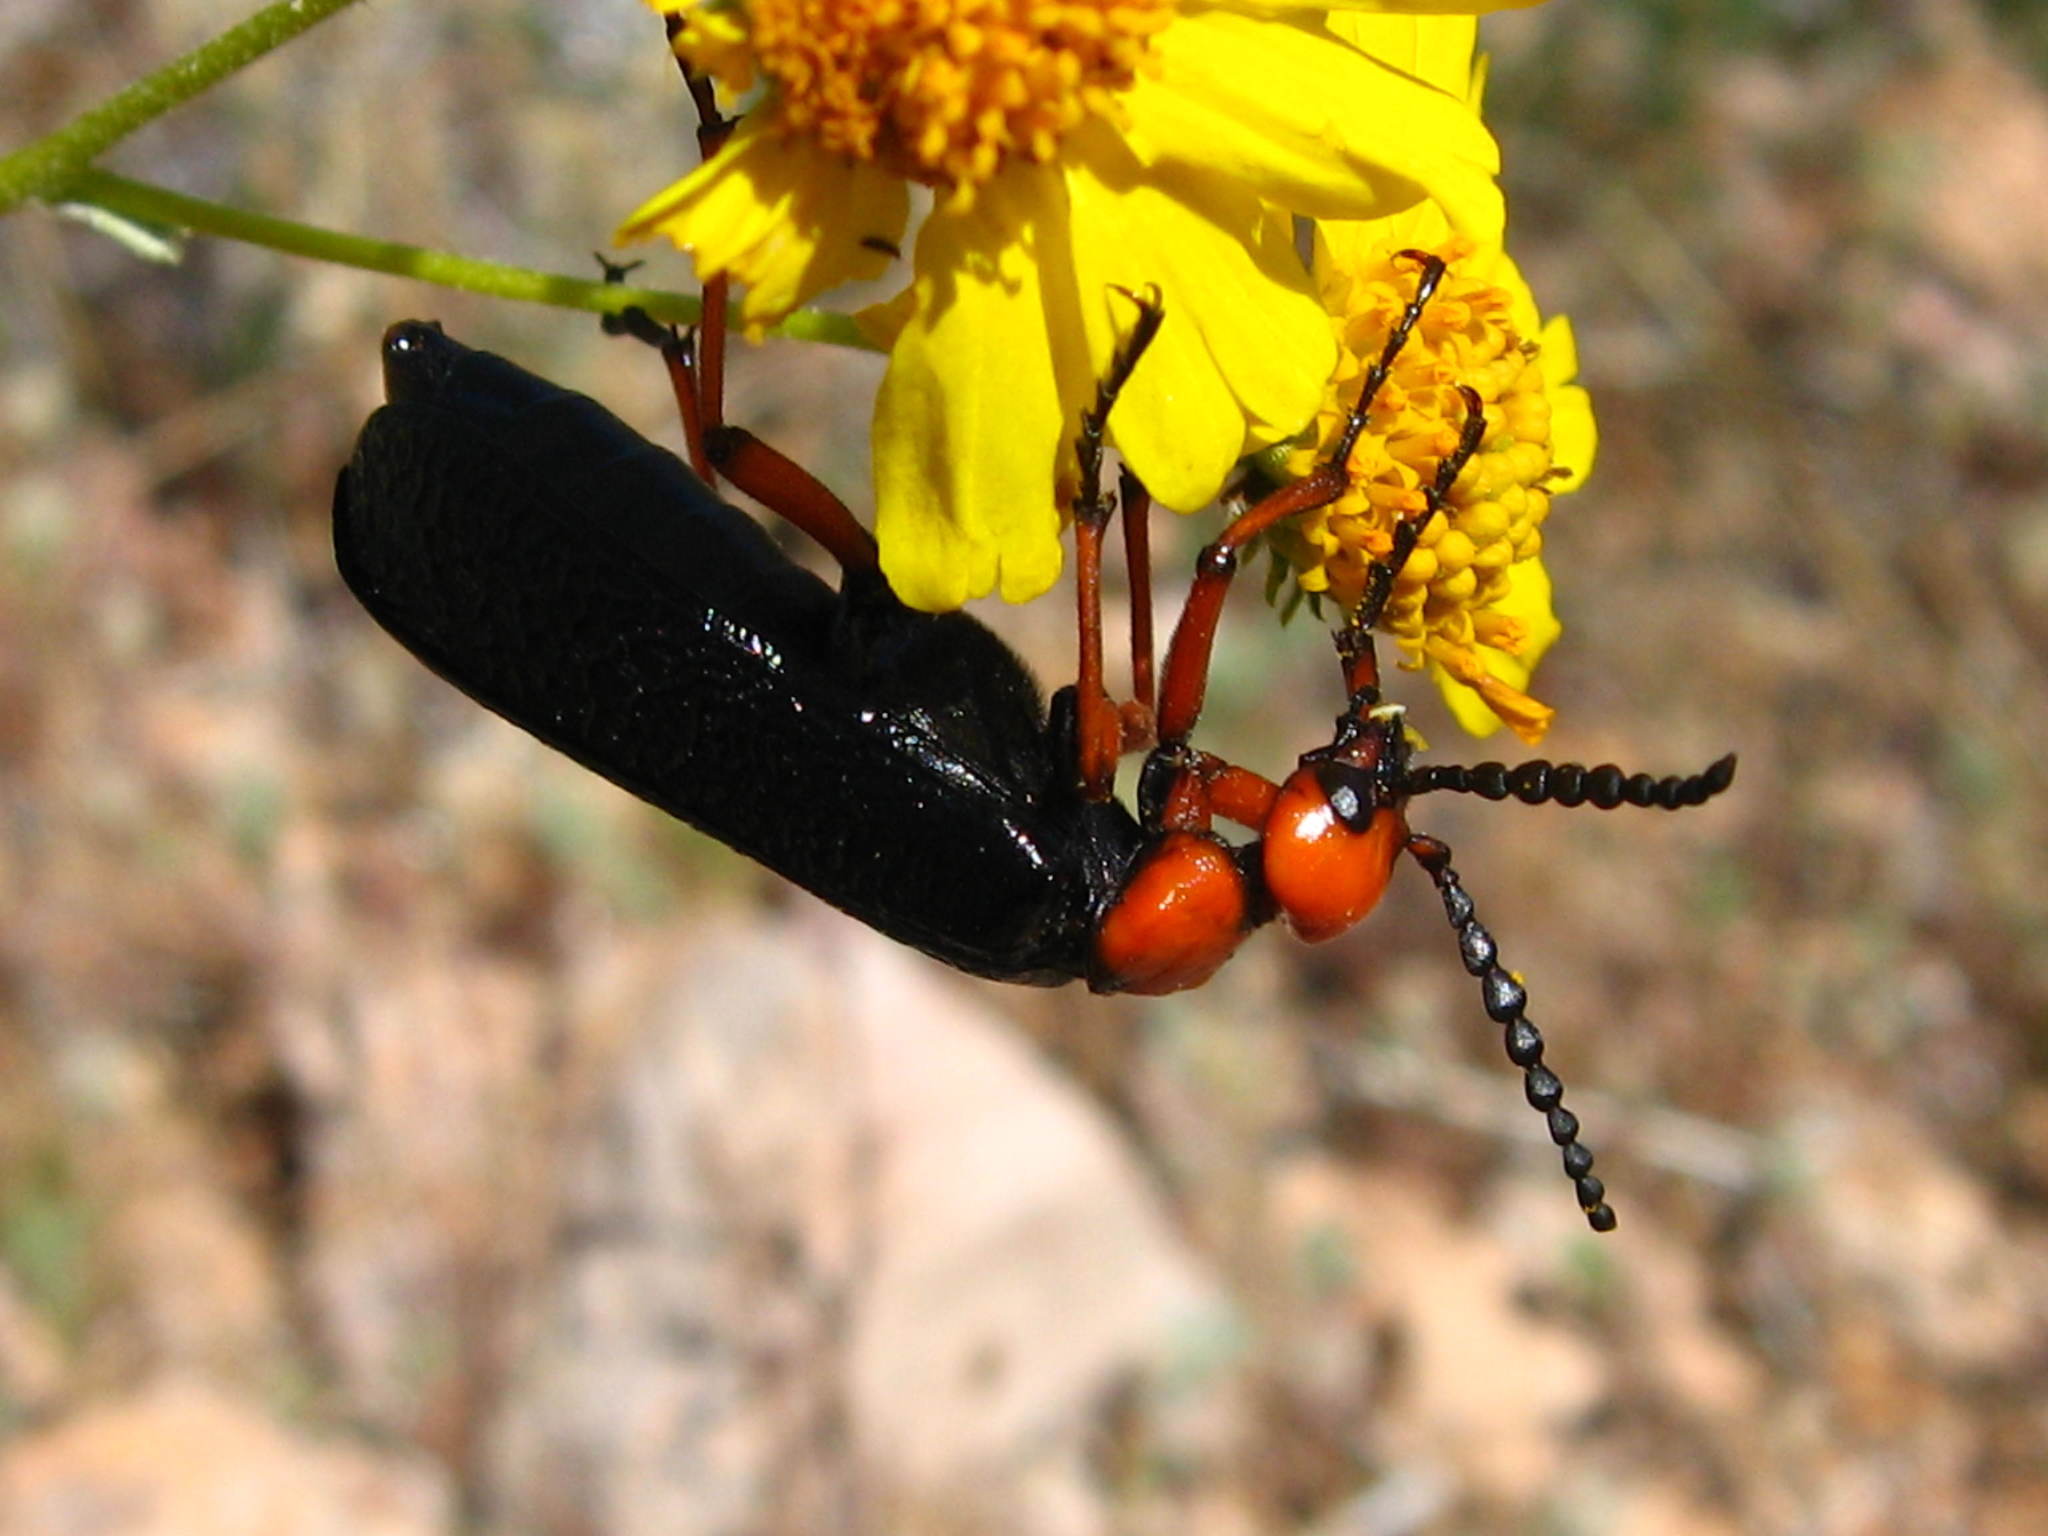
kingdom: Animalia
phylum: Arthropoda
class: Insecta
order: Coleoptera
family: Meloidae
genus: Lytta
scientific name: Lytta magister
